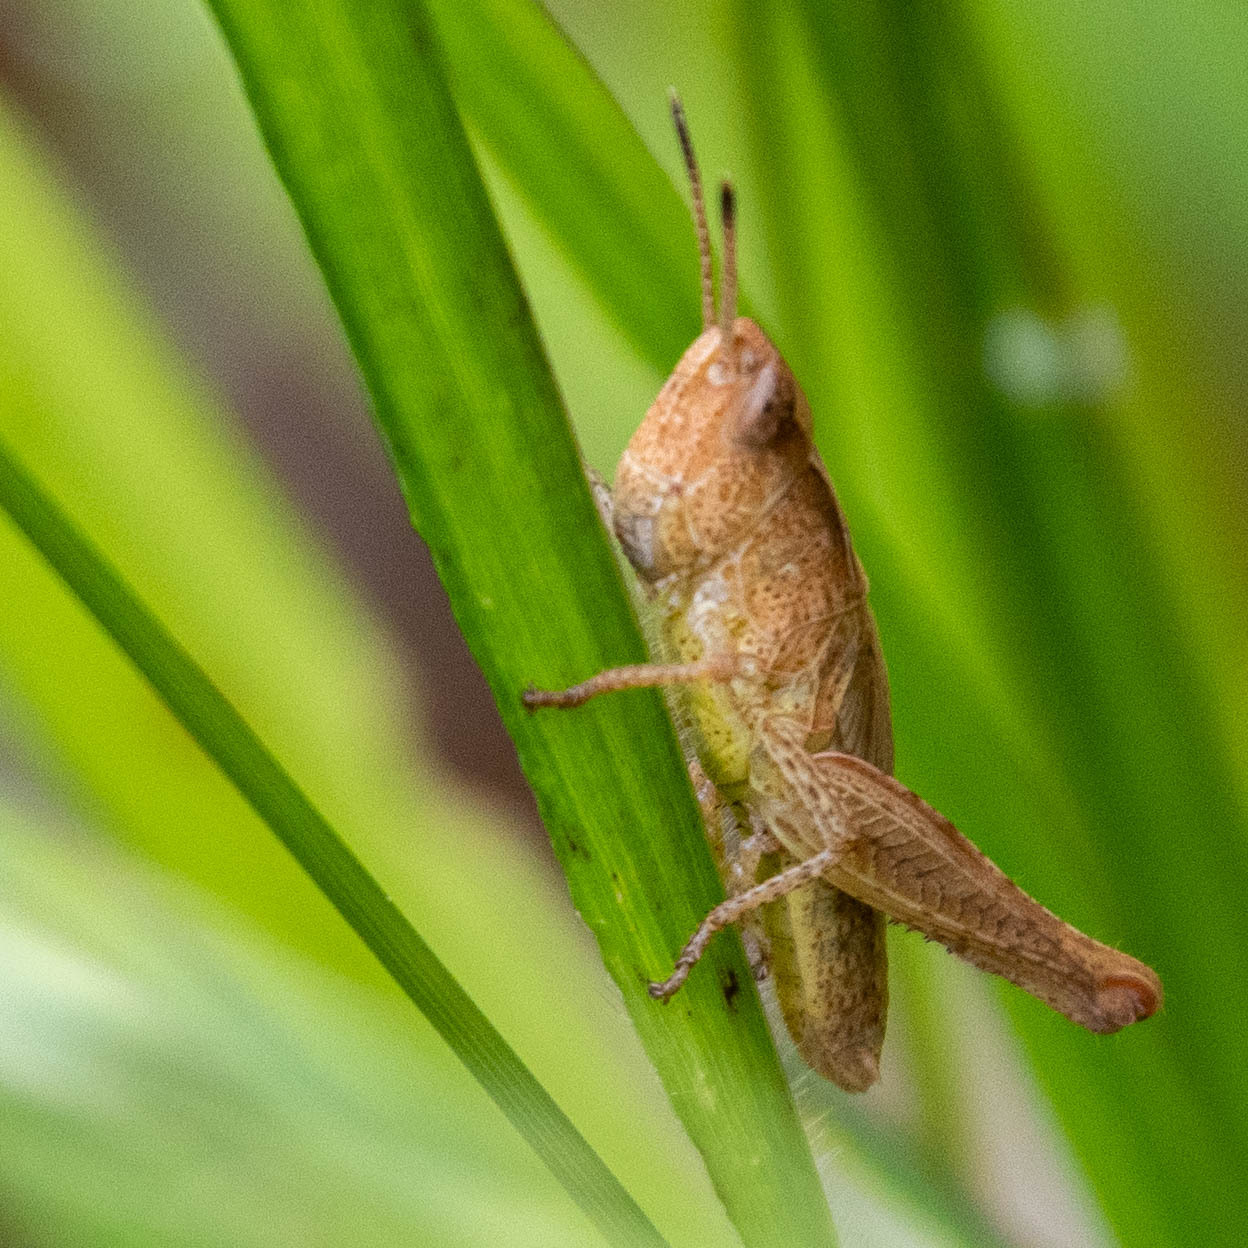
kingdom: Animalia
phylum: Arthropoda
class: Insecta
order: Orthoptera
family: Acrididae
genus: Gomphocerippus
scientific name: Gomphocerippus rufus
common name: Rufous grasshopper
